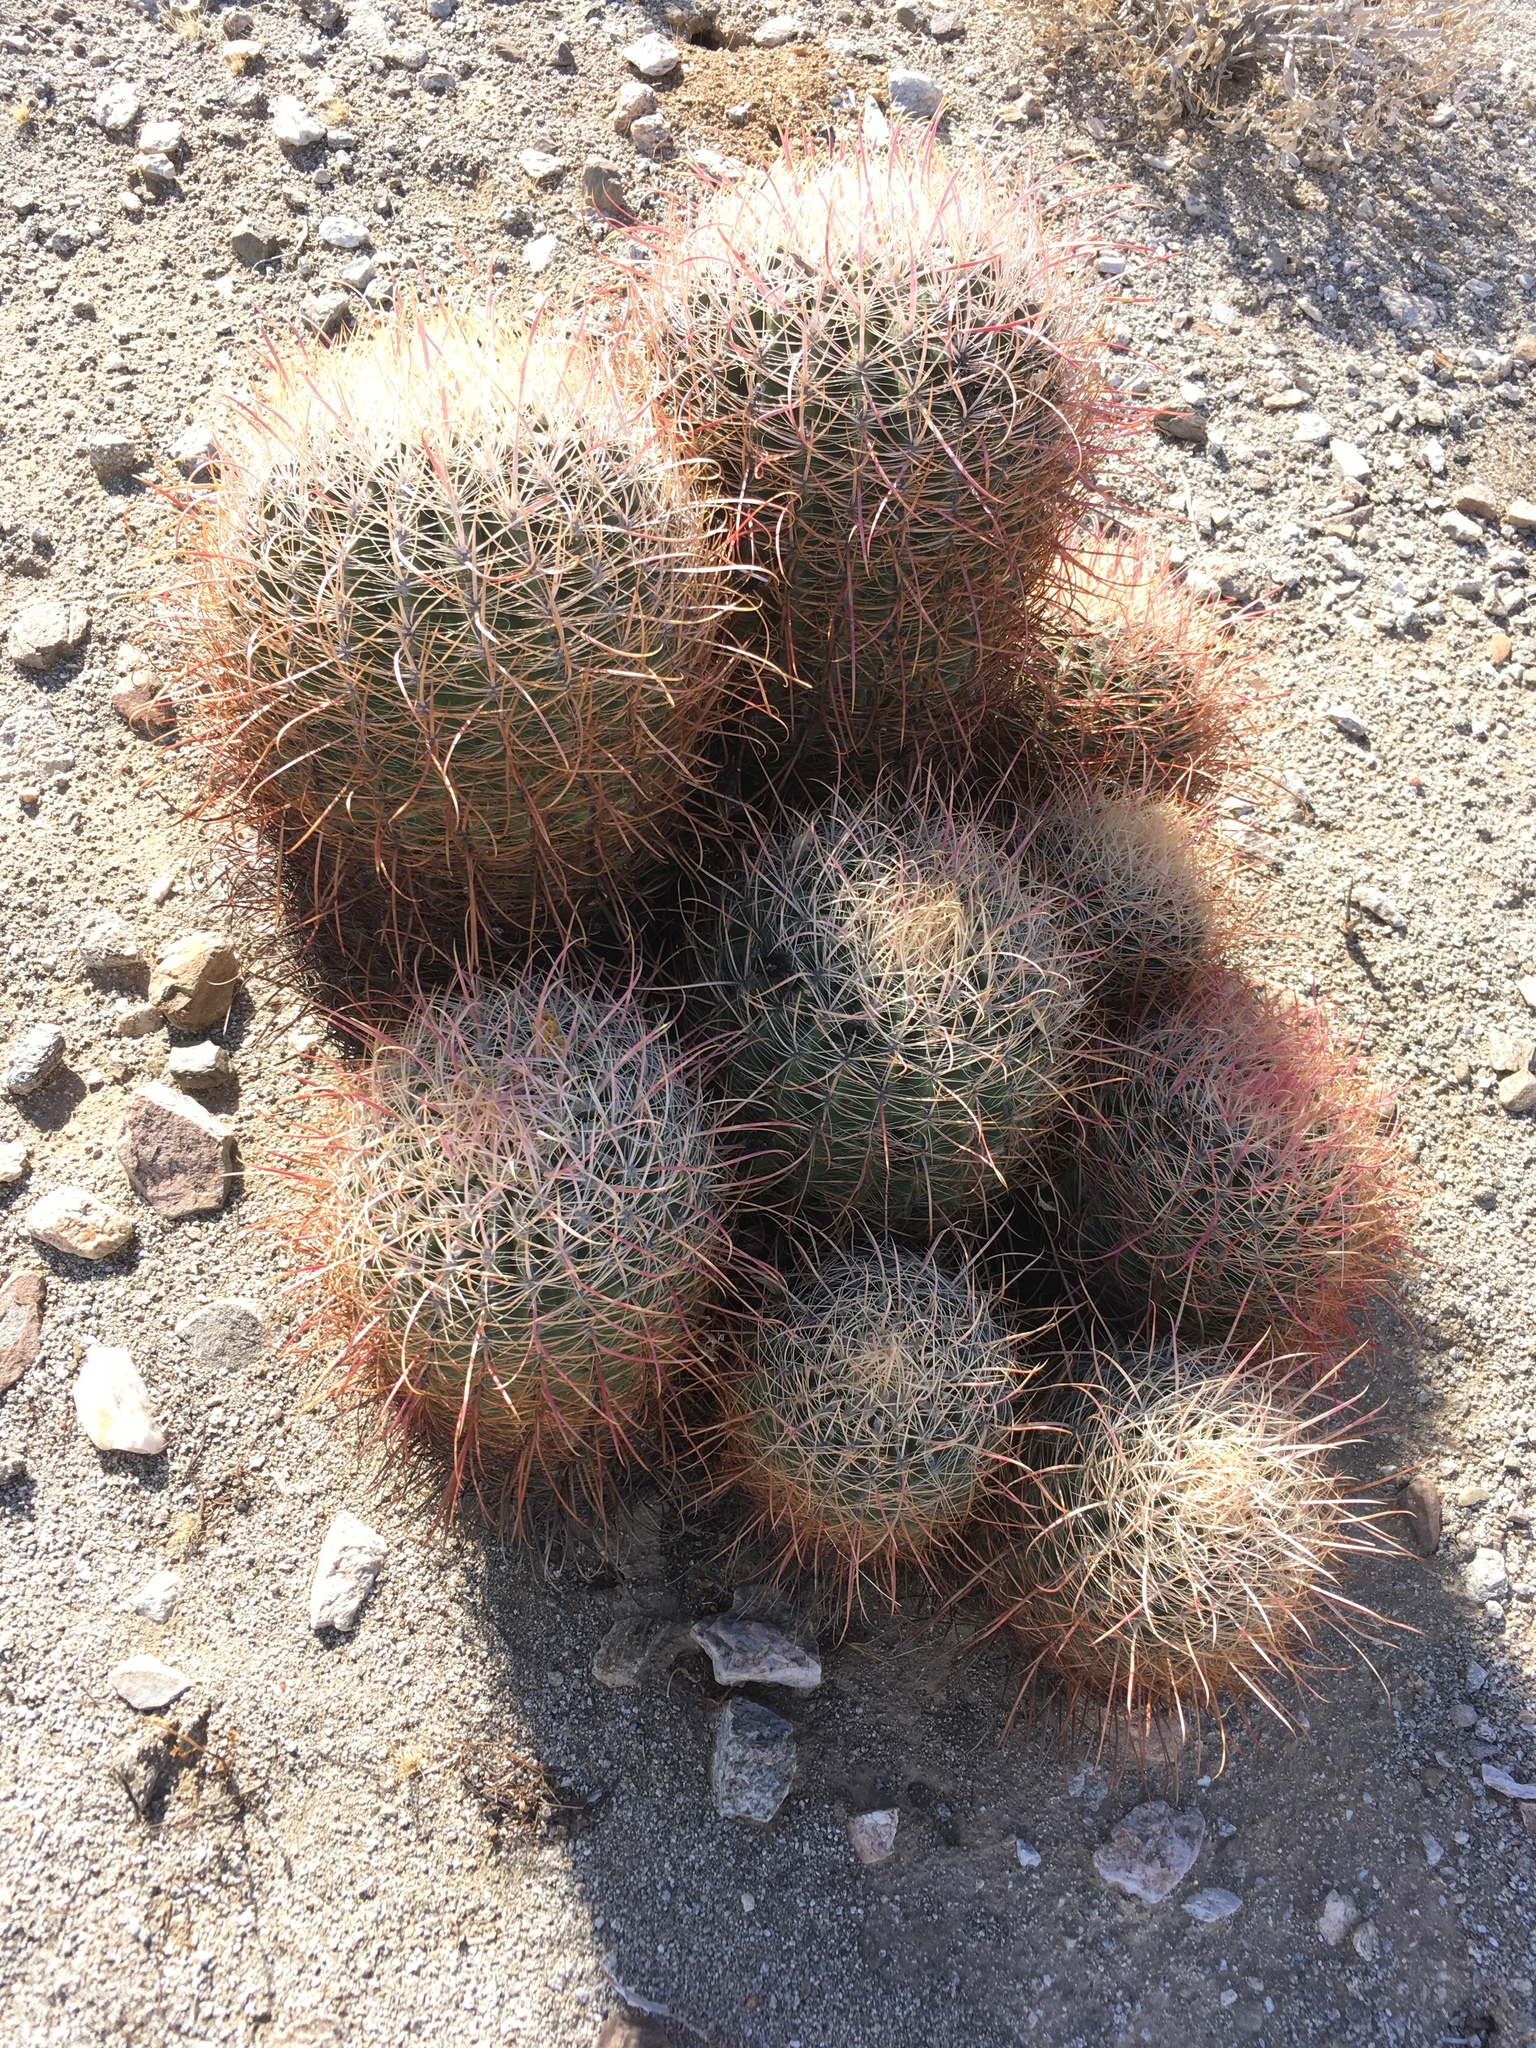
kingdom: Plantae
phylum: Tracheophyta
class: Magnoliopsida
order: Caryophyllales
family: Cactaceae
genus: Ferocactus
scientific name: Ferocactus cylindraceus
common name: California barrel cactus
